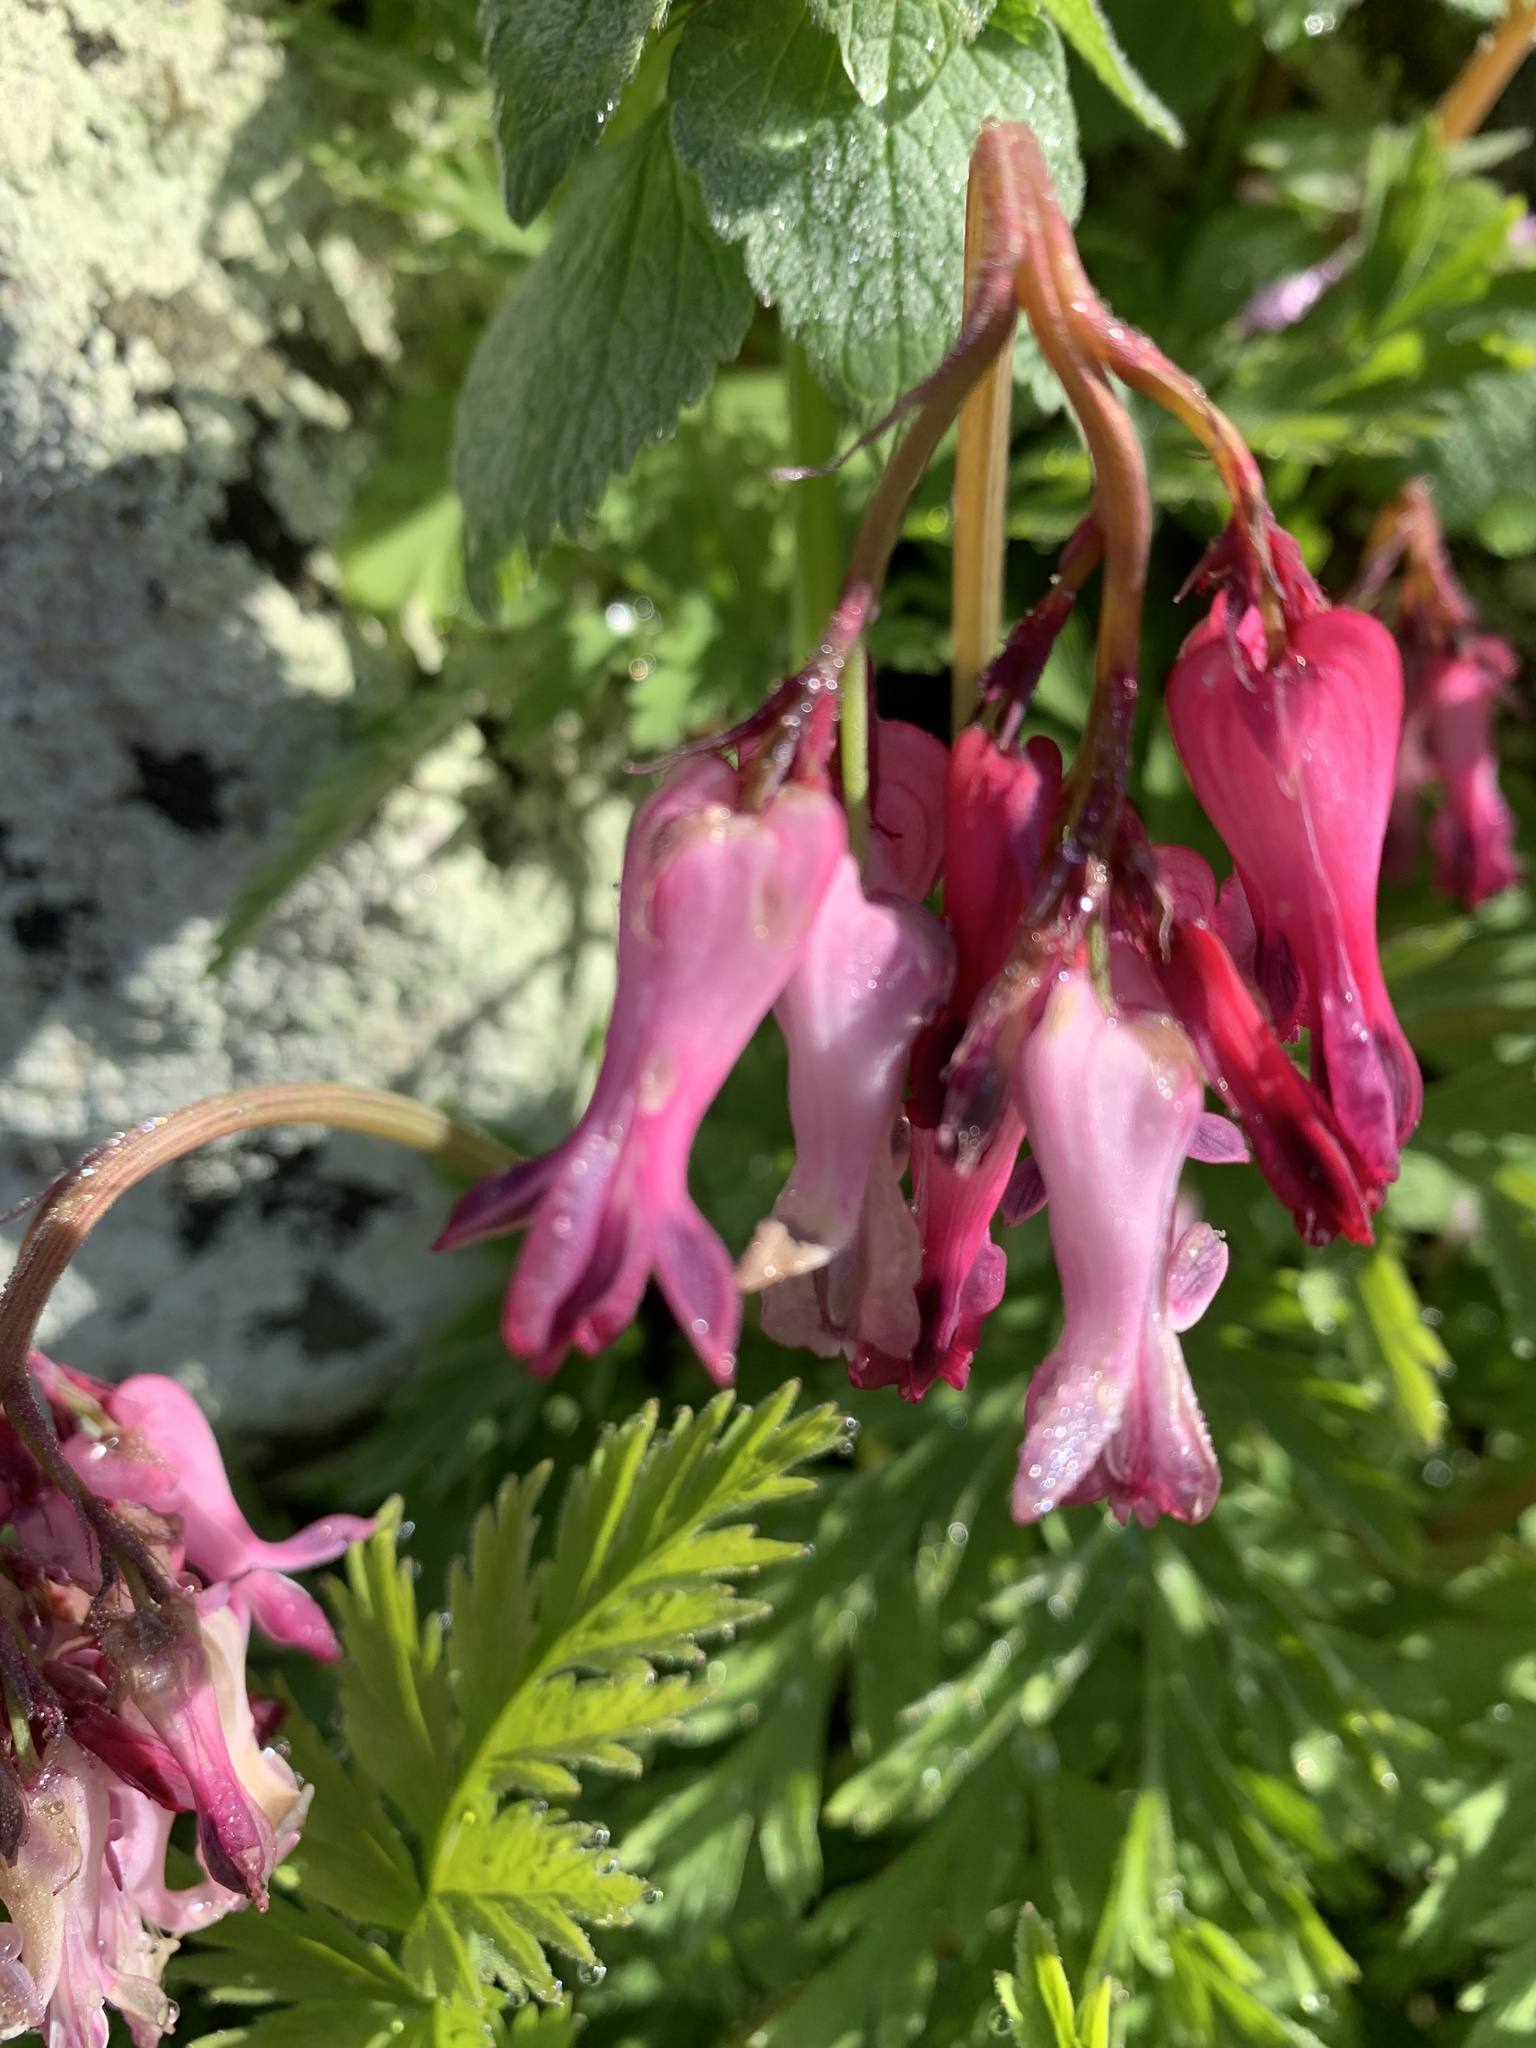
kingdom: Plantae
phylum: Tracheophyta
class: Magnoliopsida
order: Ranunculales
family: Papaveraceae
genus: Dicentra
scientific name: Dicentra eximia
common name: Turkey-corn
